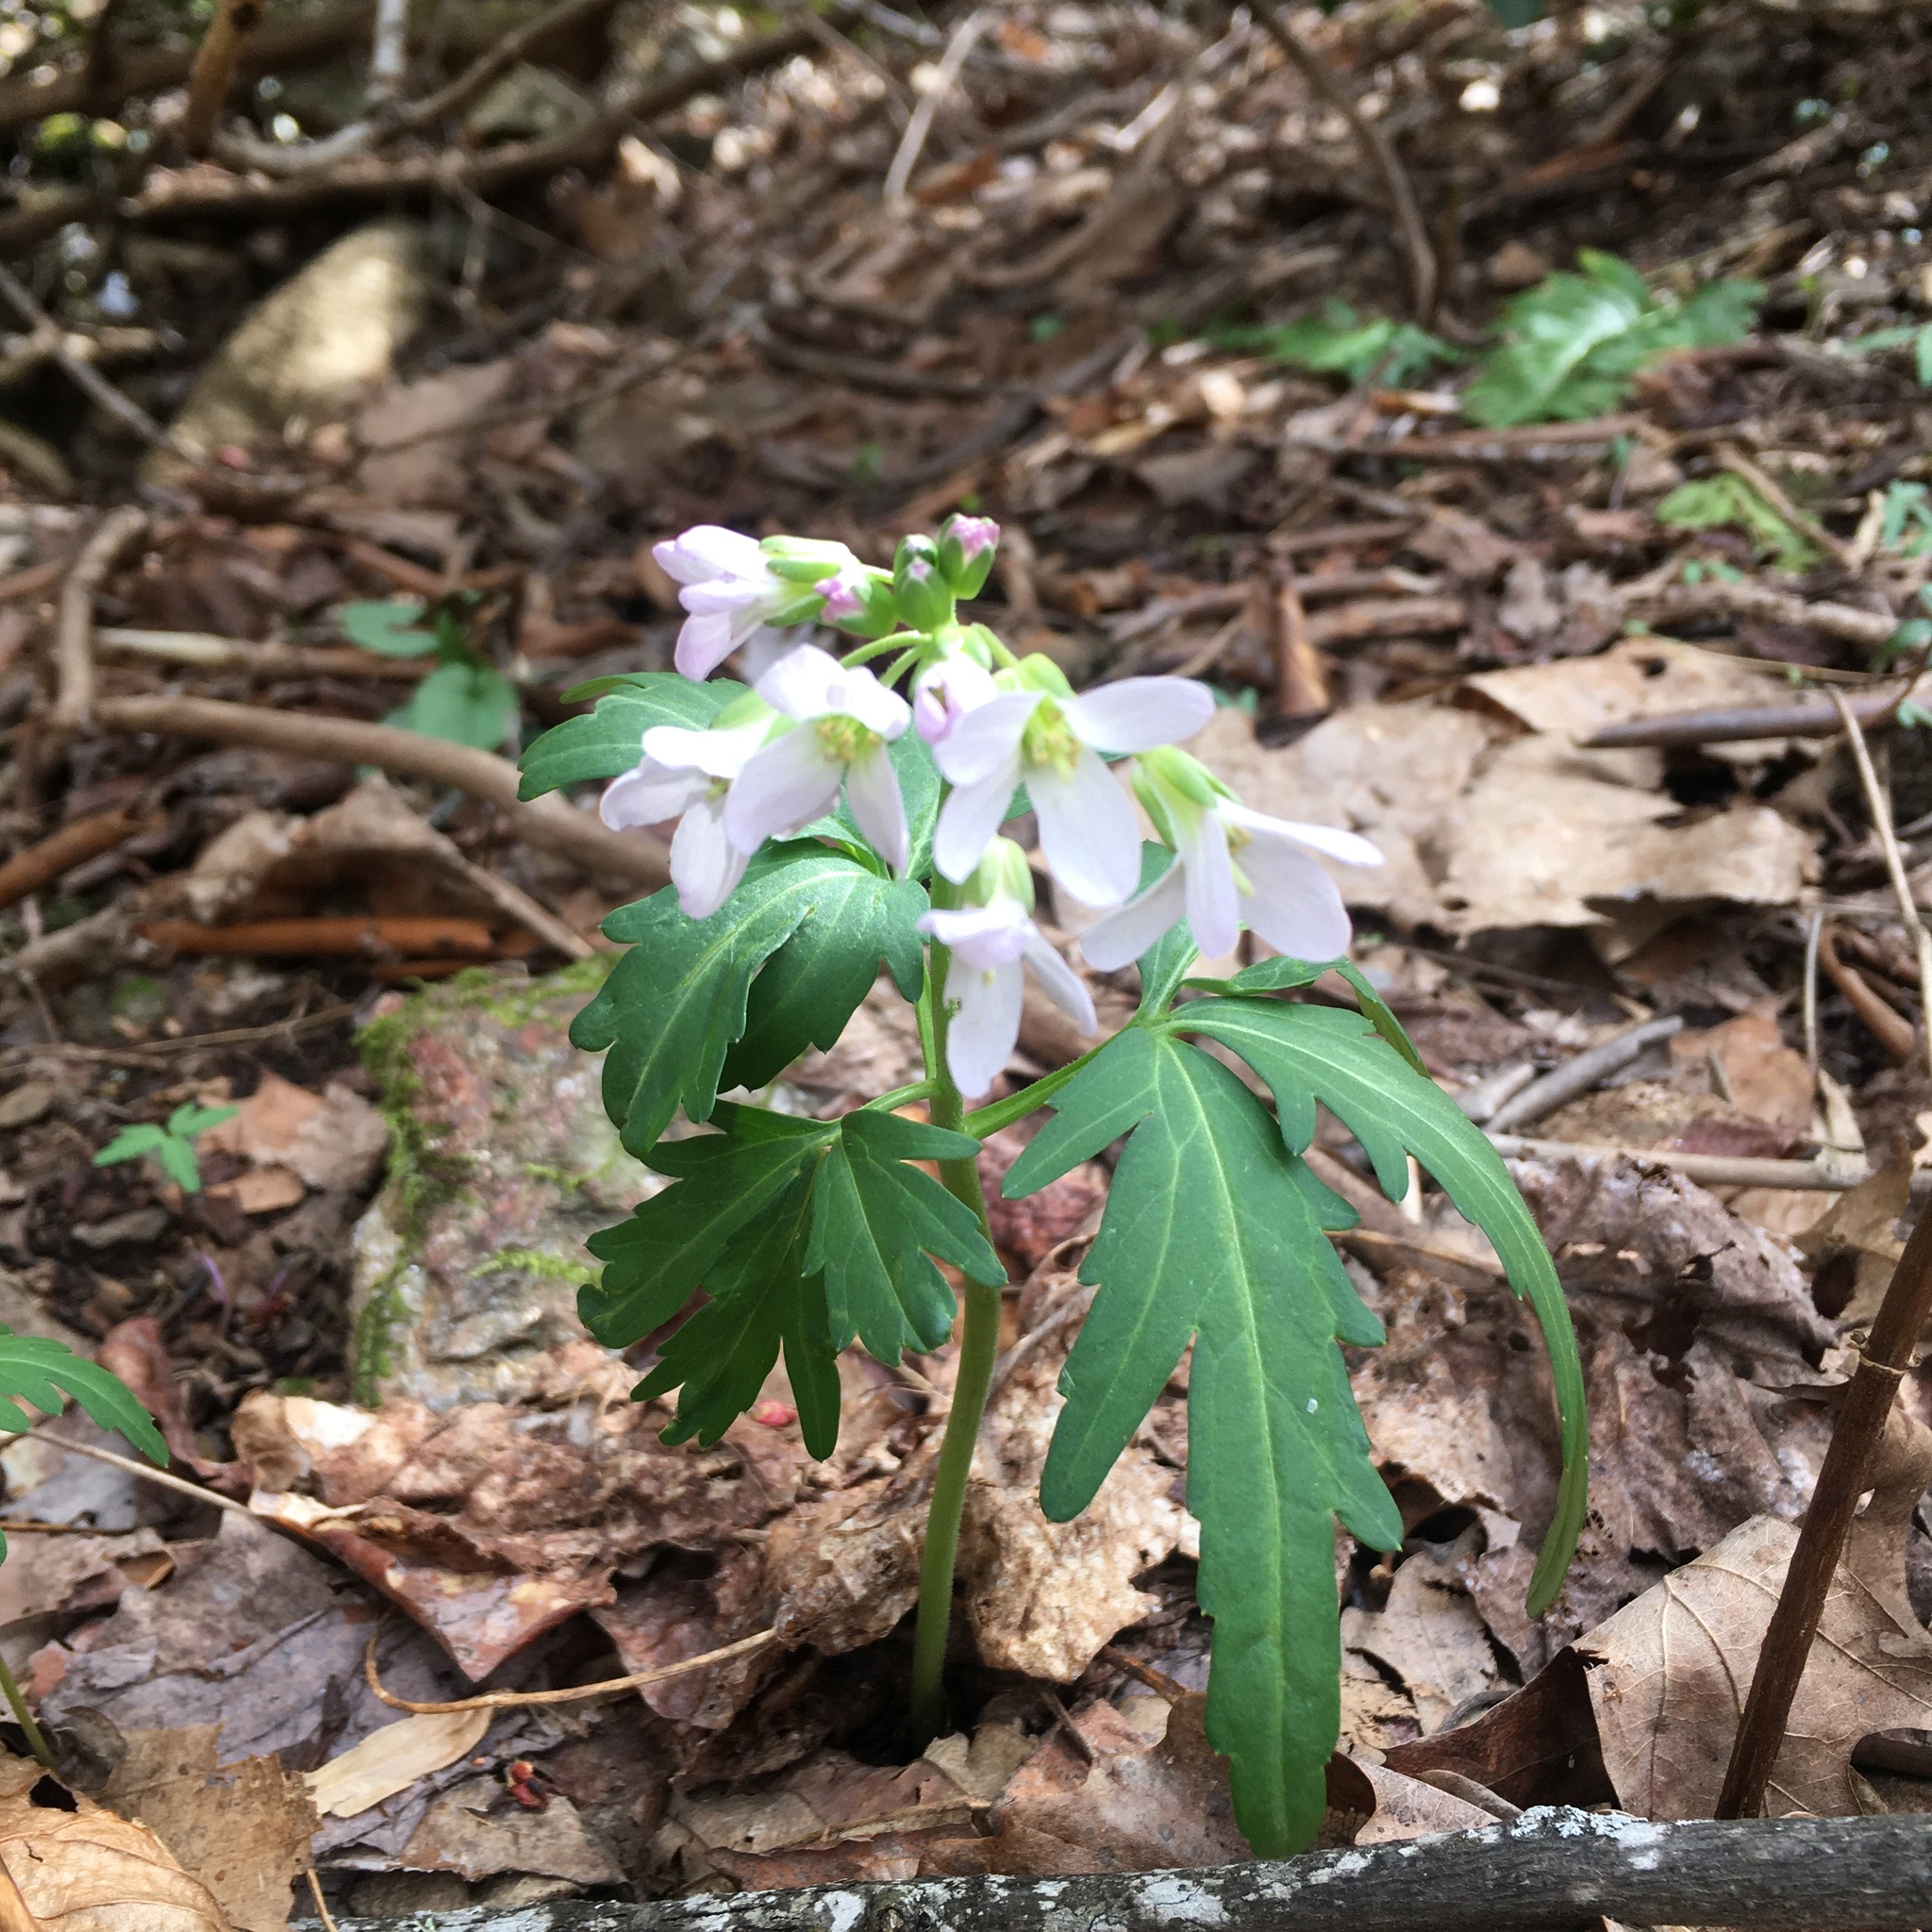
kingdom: Plantae
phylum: Tracheophyta
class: Magnoliopsida
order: Brassicales
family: Brassicaceae
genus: Cardamine
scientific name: Cardamine concatenata
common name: Cut-leaf toothcup
